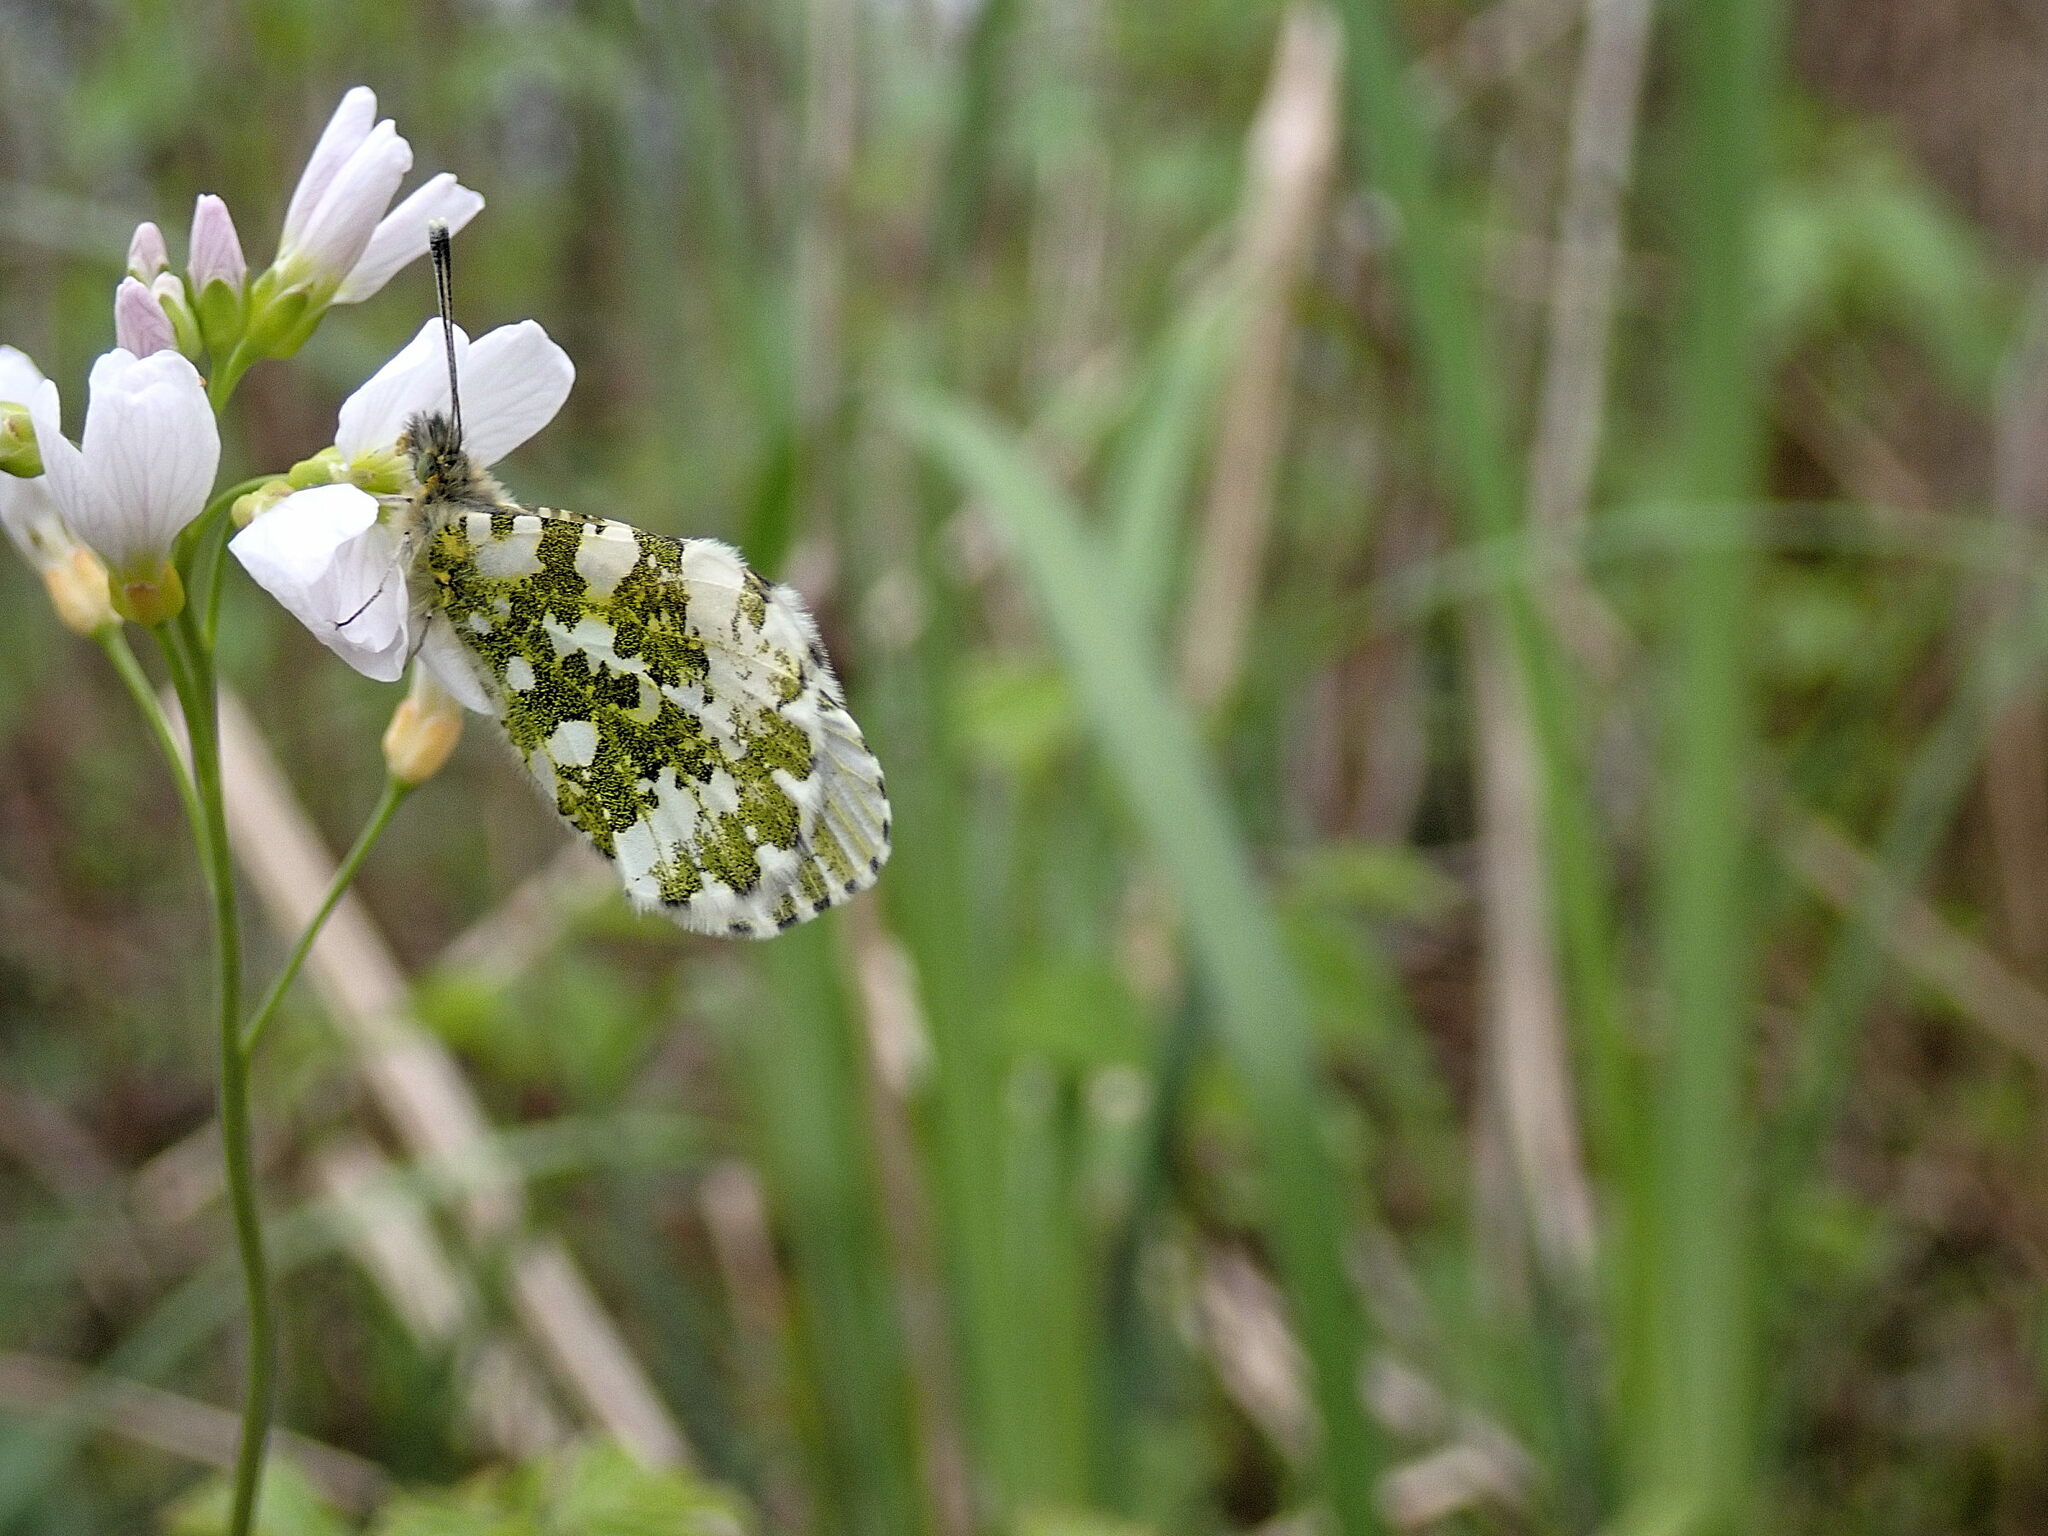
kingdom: Animalia
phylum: Arthropoda
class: Insecta
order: Lepidoptera
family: Pieridae
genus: Anthocharis
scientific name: Anthocharis cardamines
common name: Orange-tip
